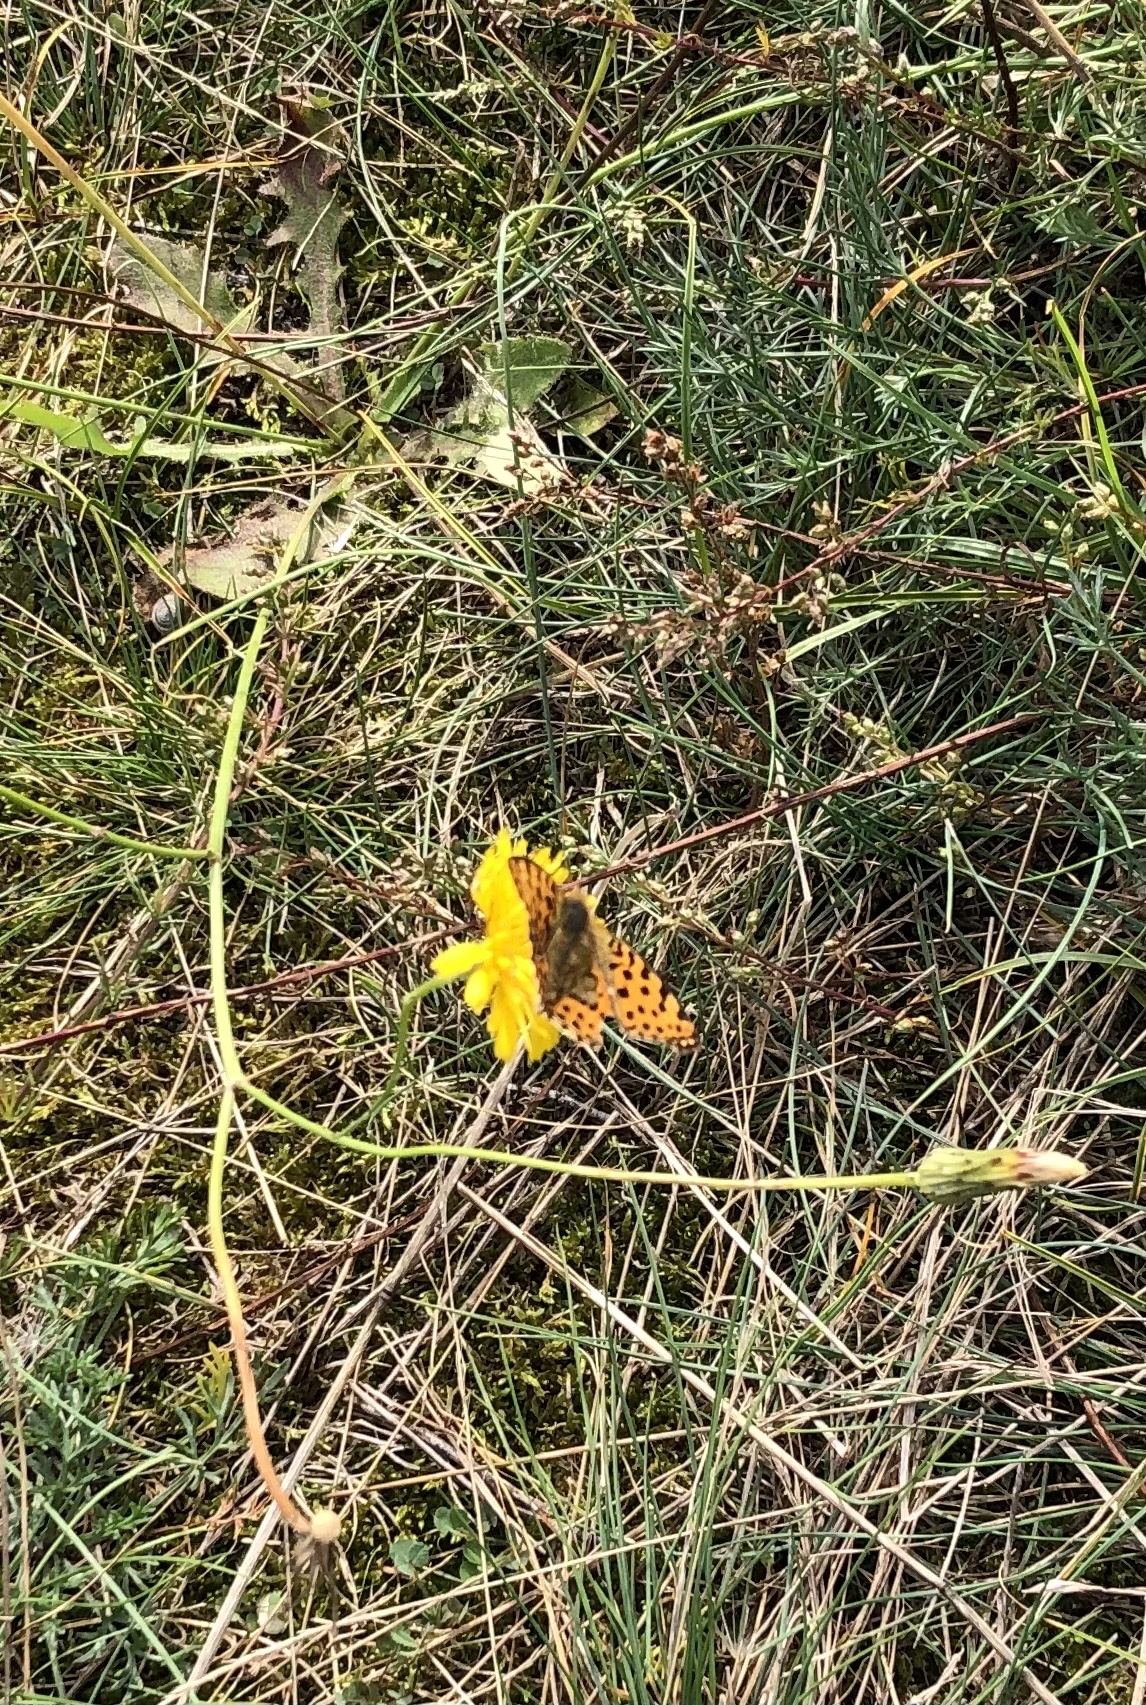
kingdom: Animalia
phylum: Arthropoda
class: Insecta
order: Lepidoptera
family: Nymphalidae
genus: Issoria
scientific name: Issoria lathonia
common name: Queen of spain fritillary
